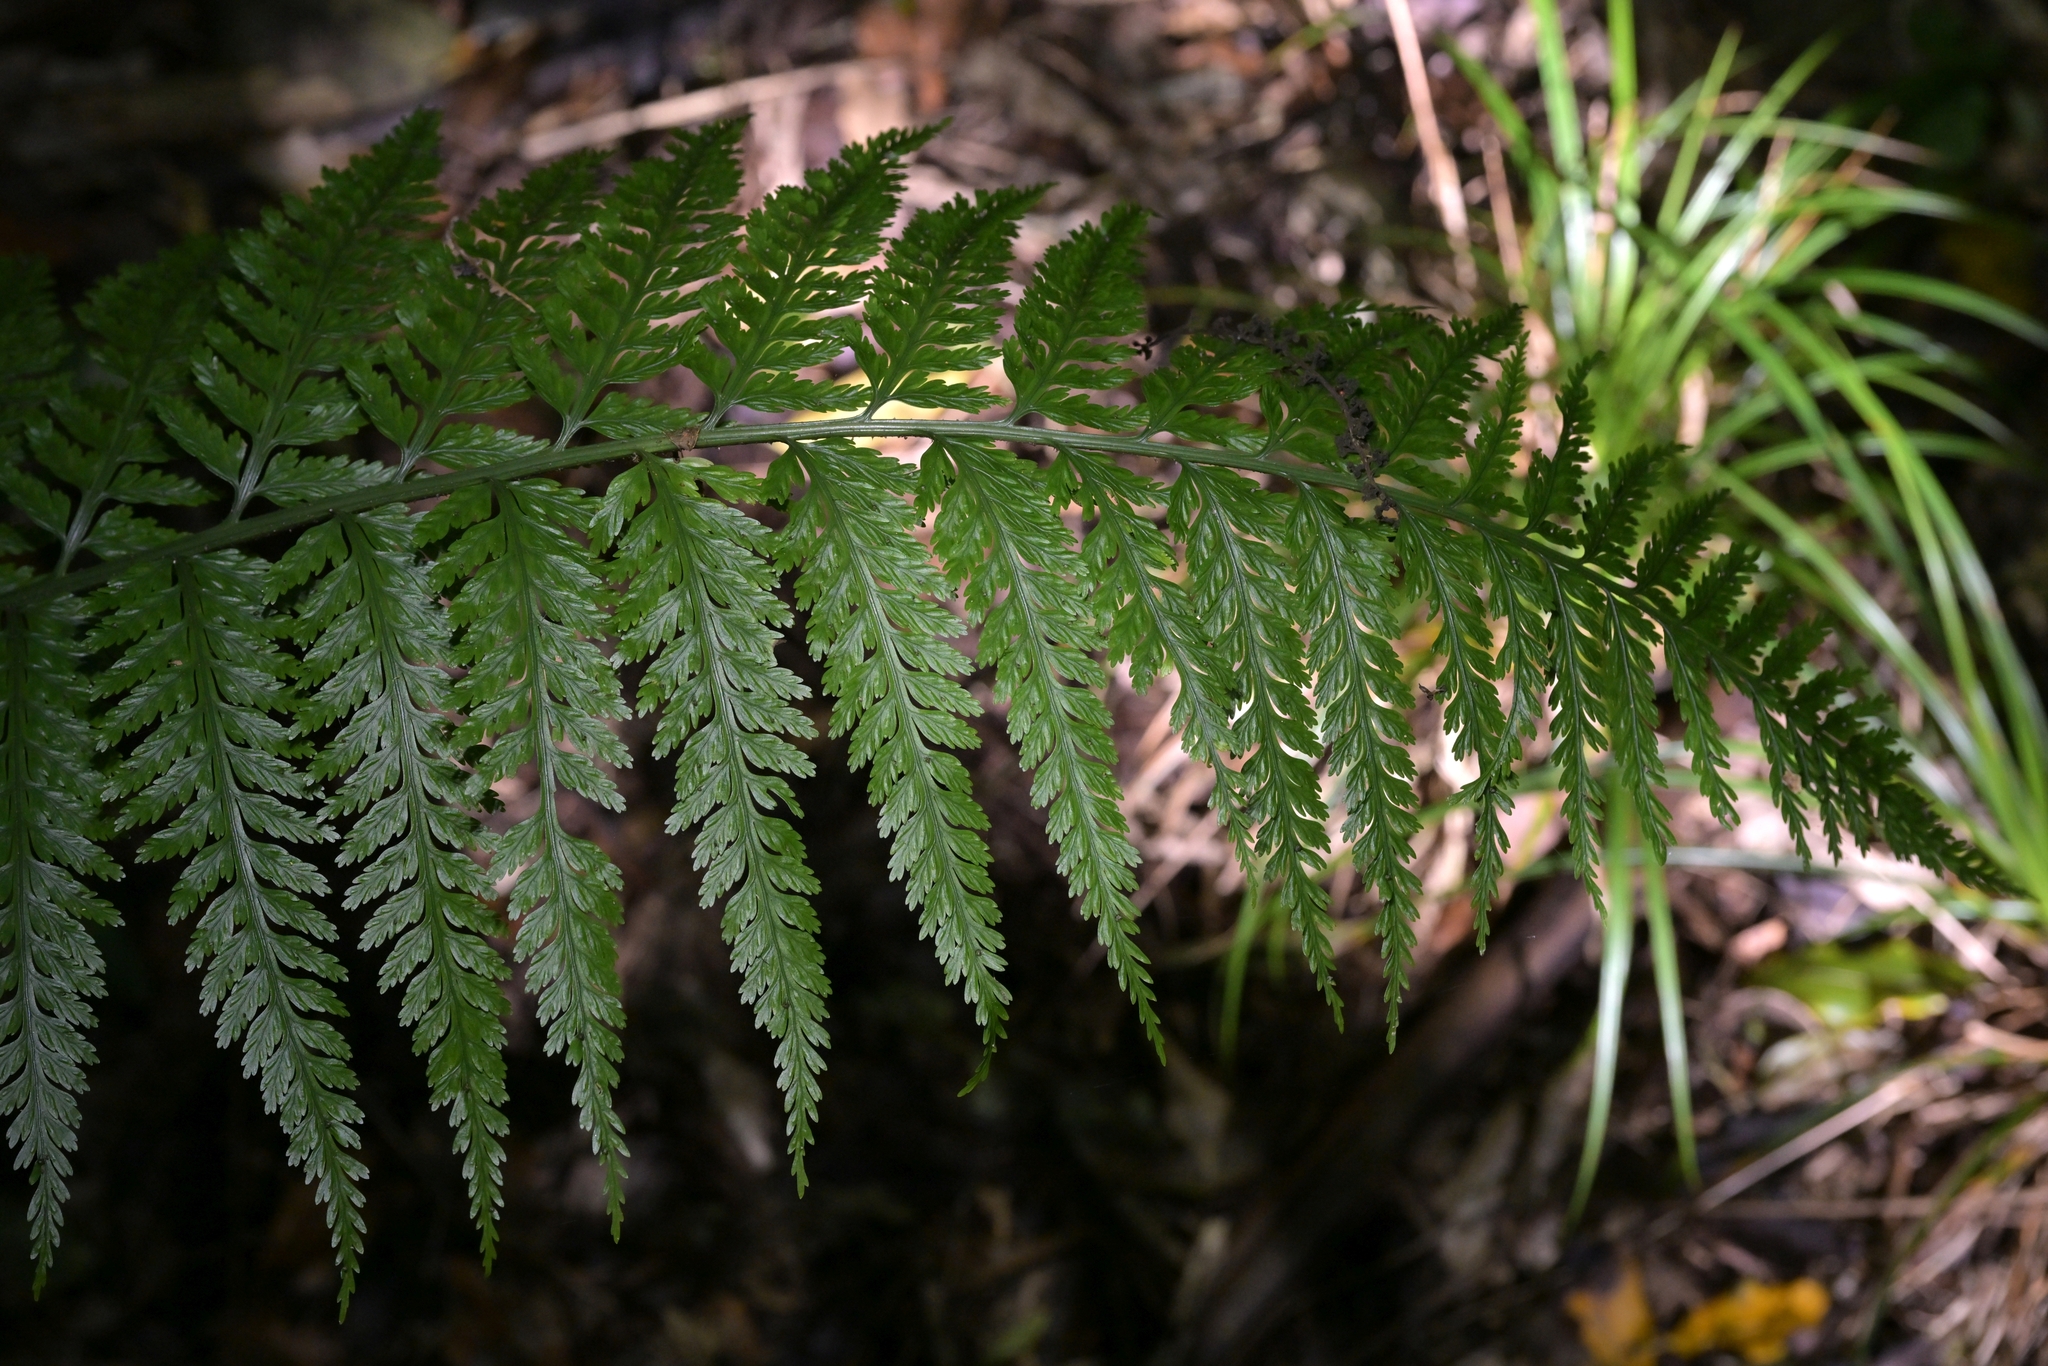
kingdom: Plantae
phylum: Tracheophyta
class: Polypodiopsida
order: Polypodiales
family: Aspleniaceae
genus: Asplenium
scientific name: Asplenium bulbiferum
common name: Mother fern
